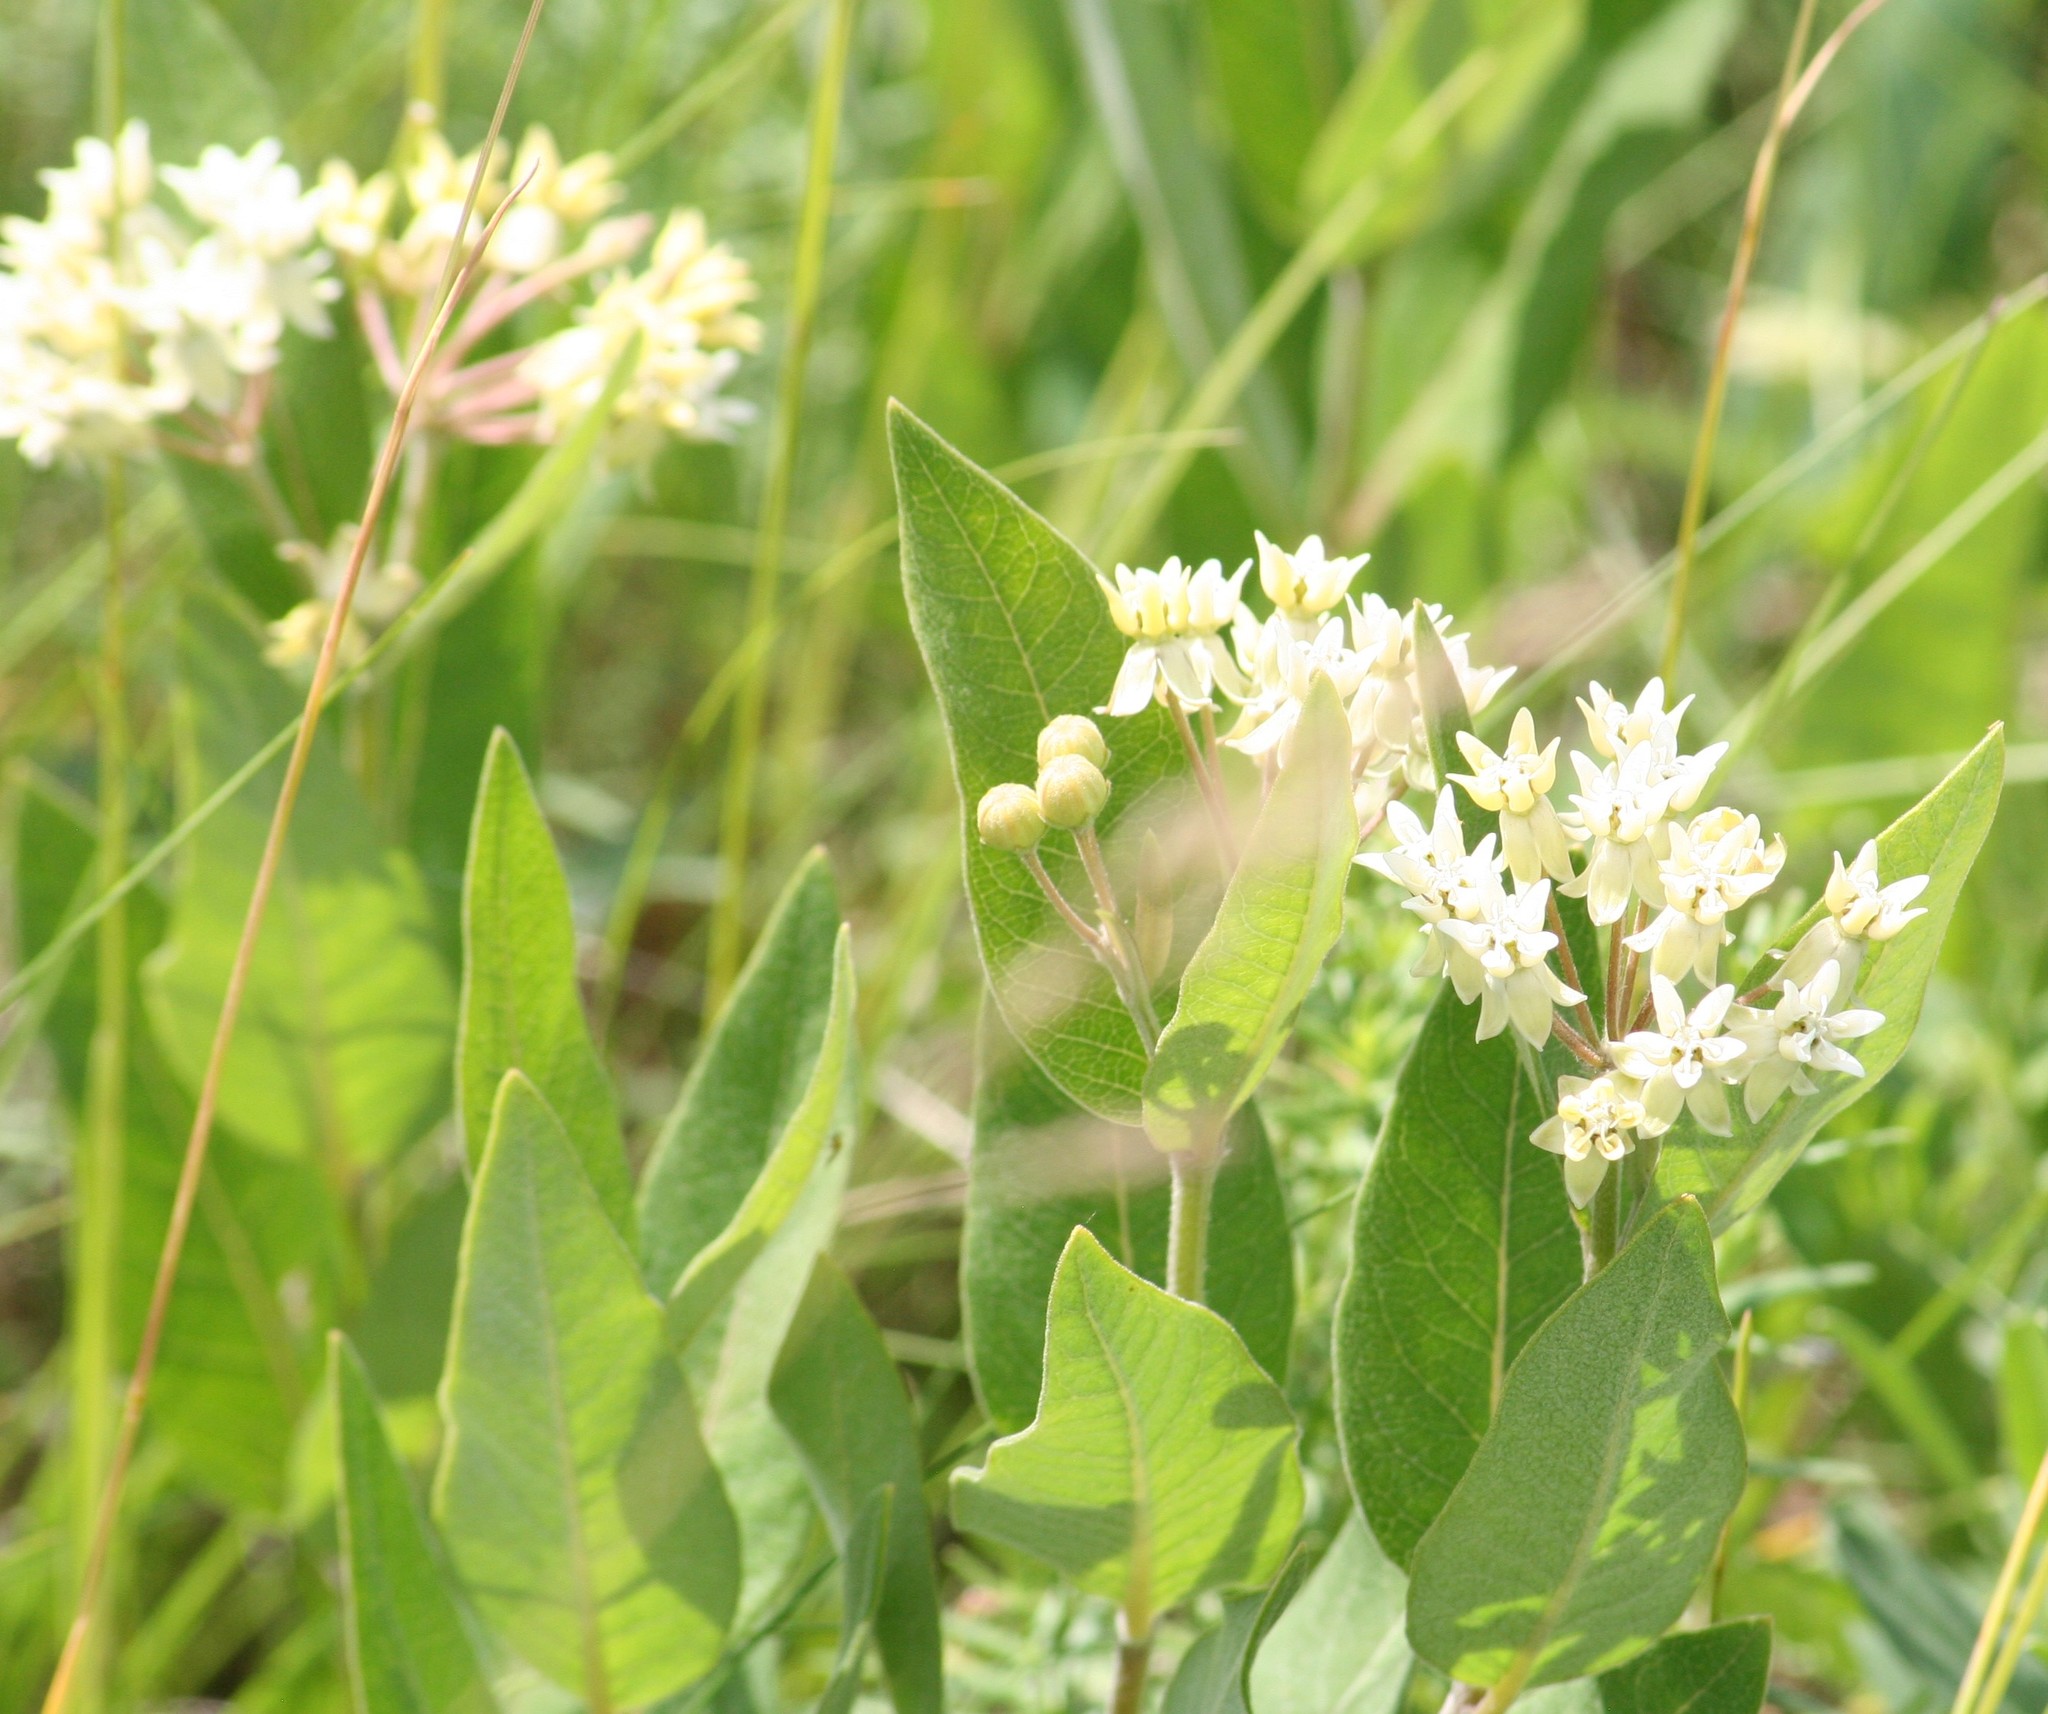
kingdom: Plantae
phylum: Tracheophyta
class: Magnoliopsida
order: Gentianales
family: Apocynaceae
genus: Asclepias
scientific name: Asclepias ovalifolia
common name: Dwarf milkweed
